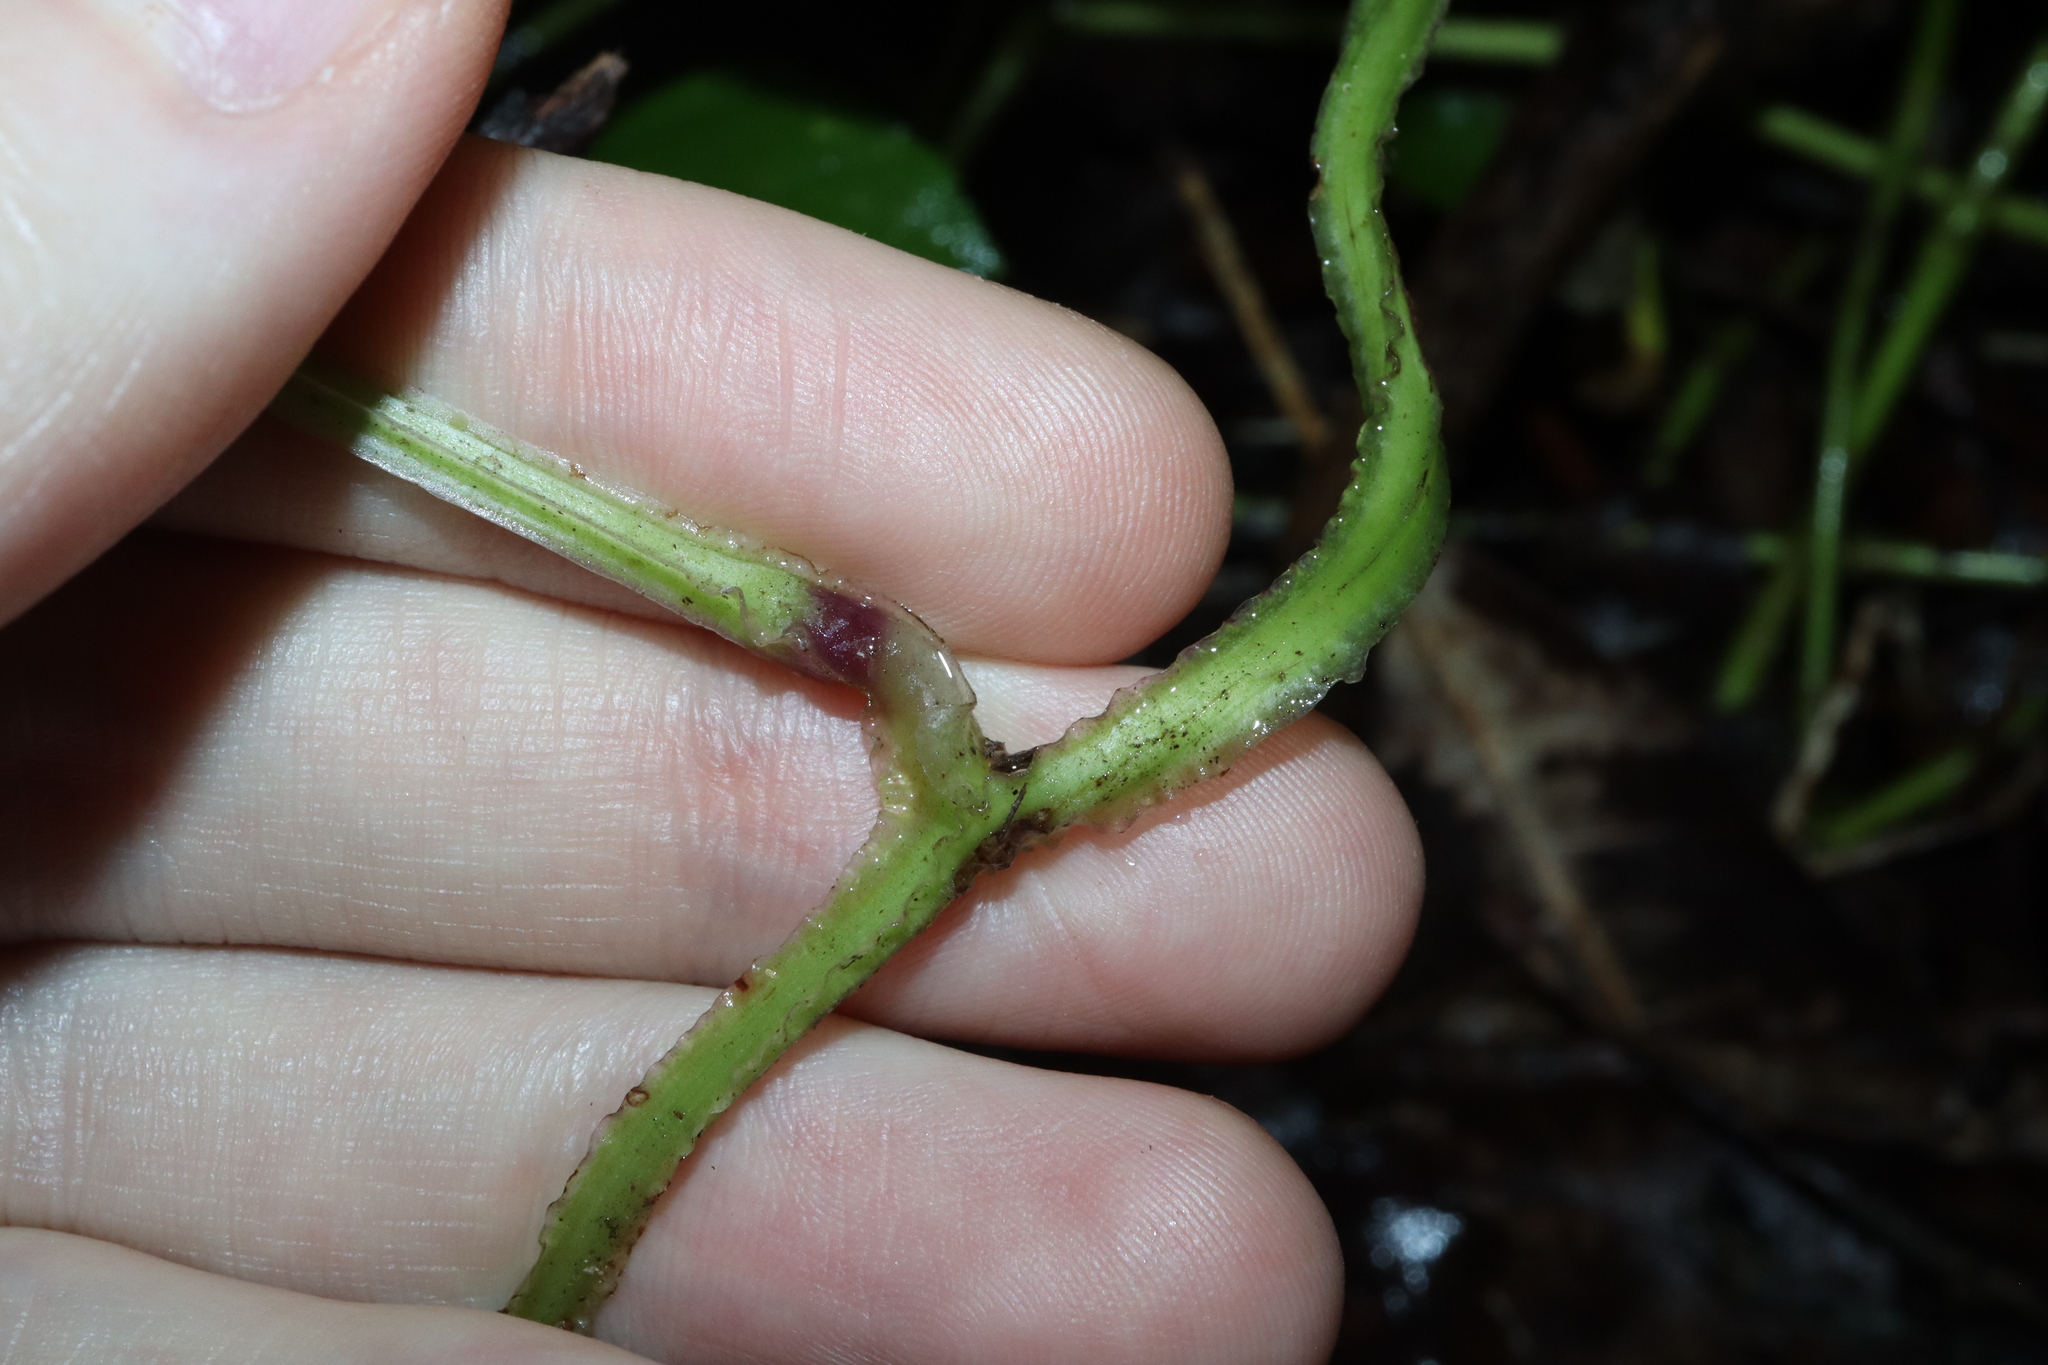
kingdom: Plantae
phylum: Tracheophyta
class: Liliopsida
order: Dioscoreales
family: Dioscoreaceae
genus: Dioscorea
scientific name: Dioscorea alata
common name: Water yam
